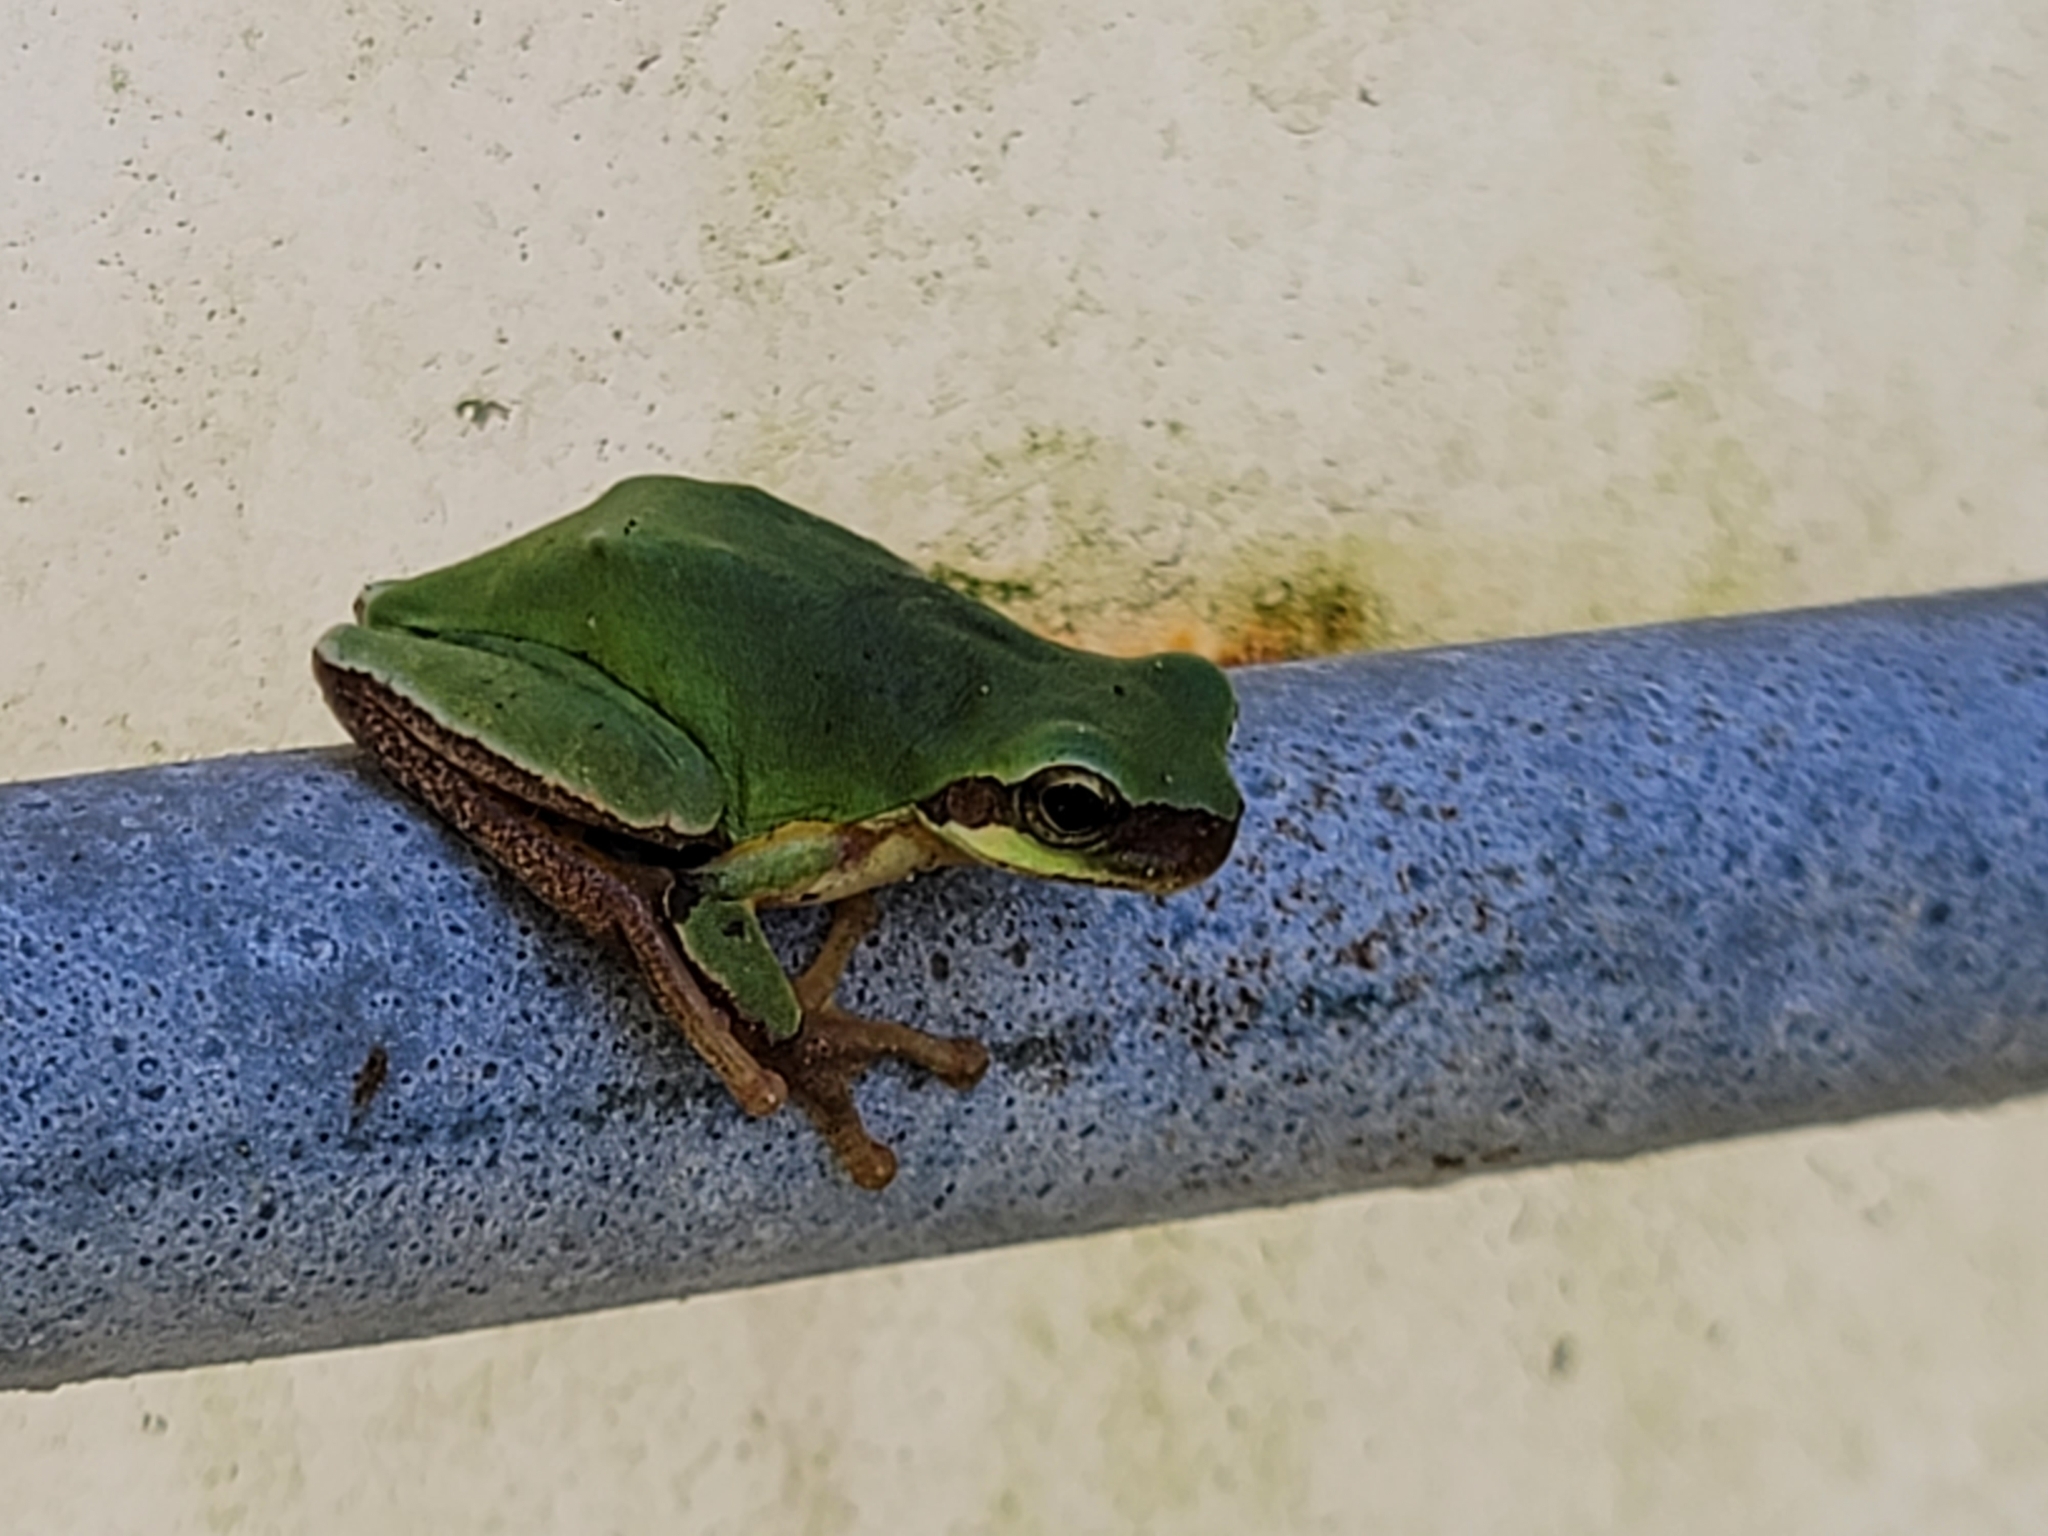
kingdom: Animalia
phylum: Chordata
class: Amphibia
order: Anura
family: Hylidae
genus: Hyla
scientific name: Hyla chinensis
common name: Common chinese treefrog
